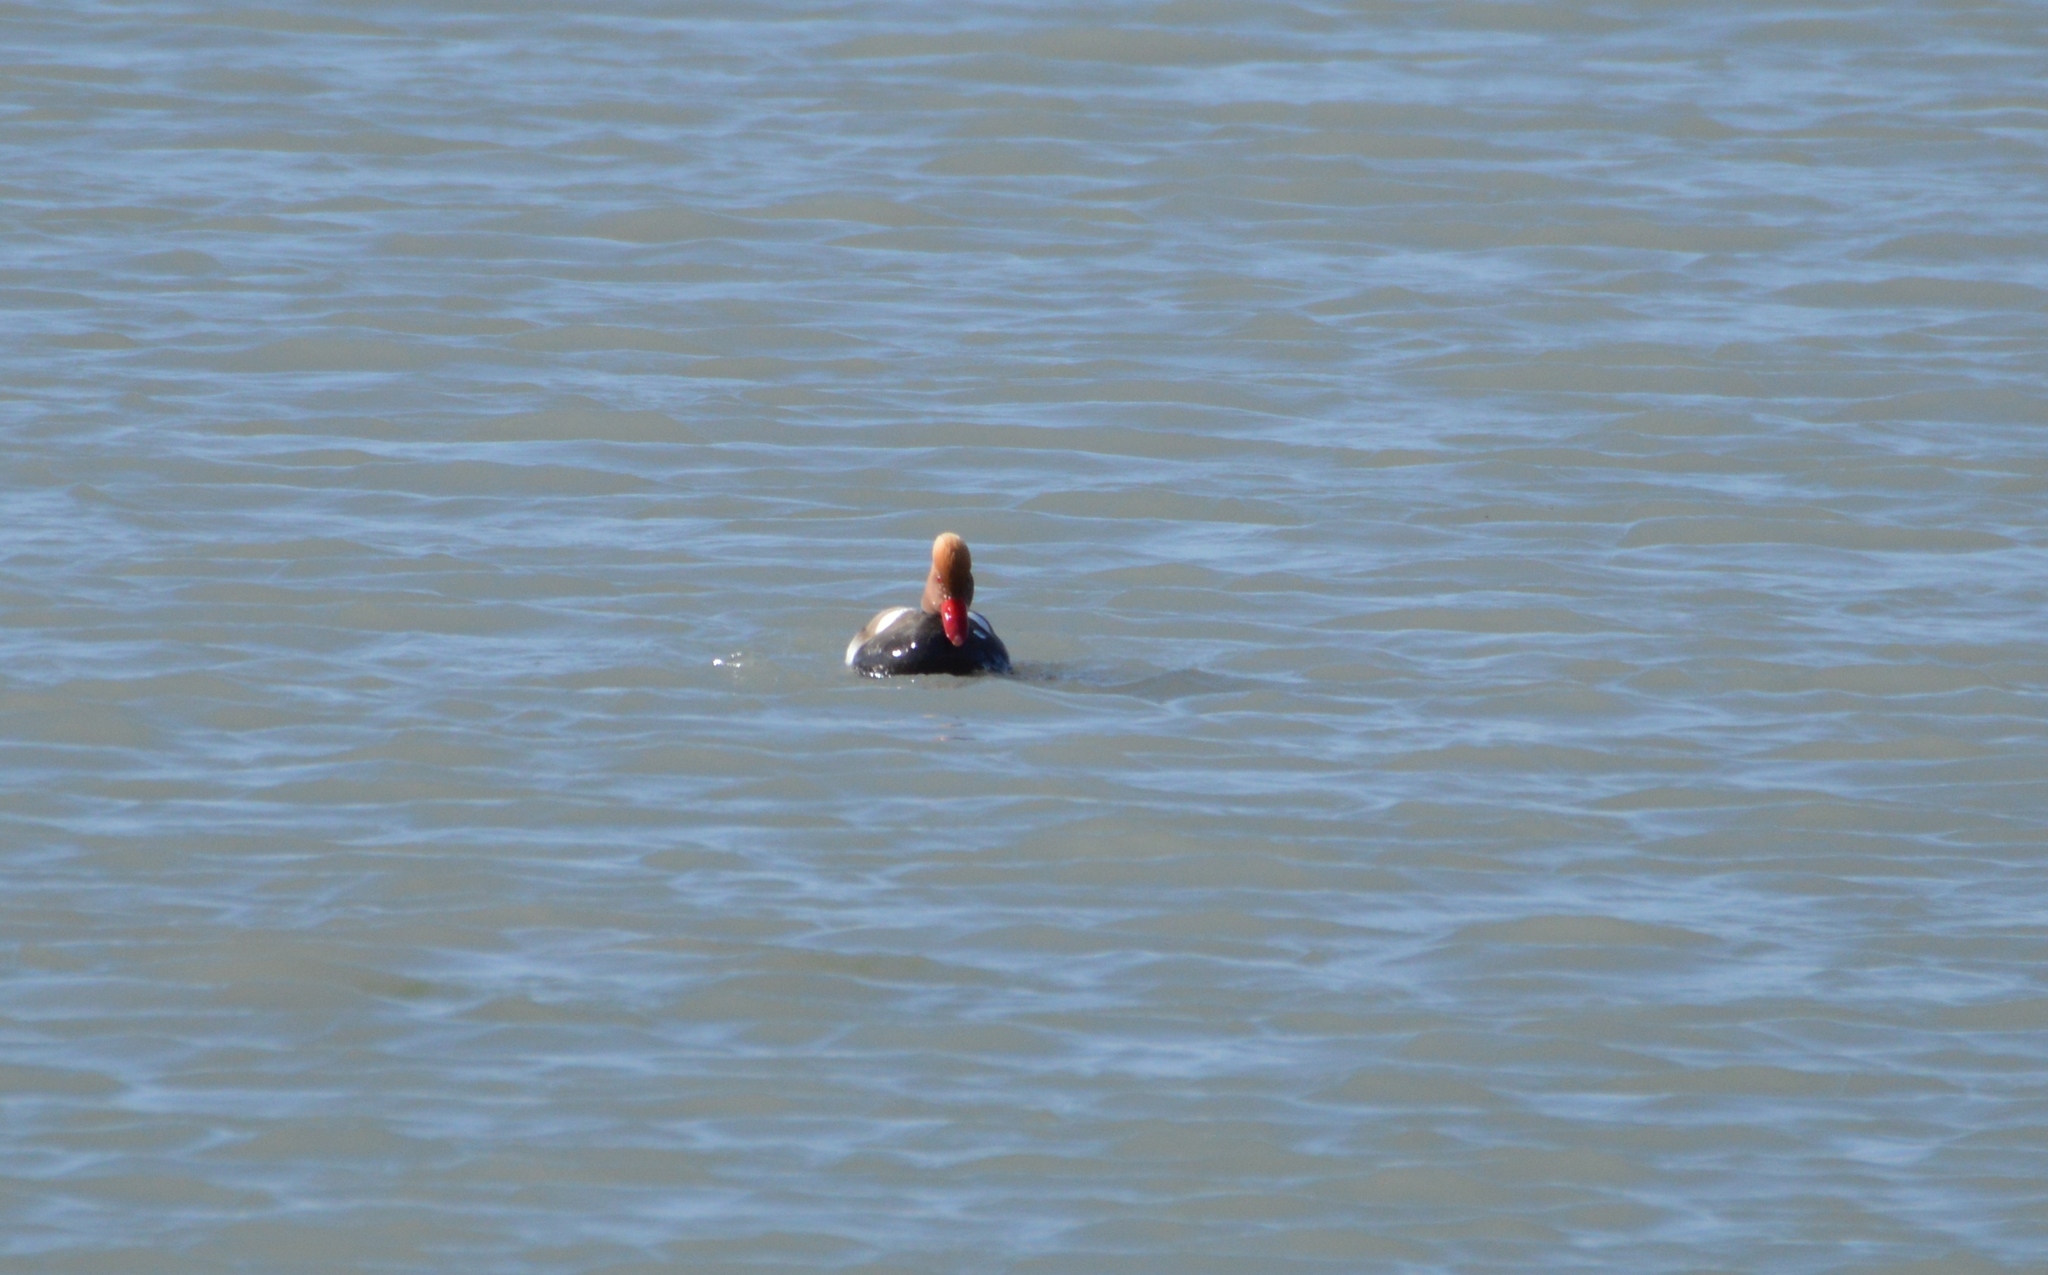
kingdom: Animalia
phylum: Chordata
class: Aves
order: Anseriformes
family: Anatidae
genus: Netta
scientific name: Netta rufina
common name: Red-crested pochard
